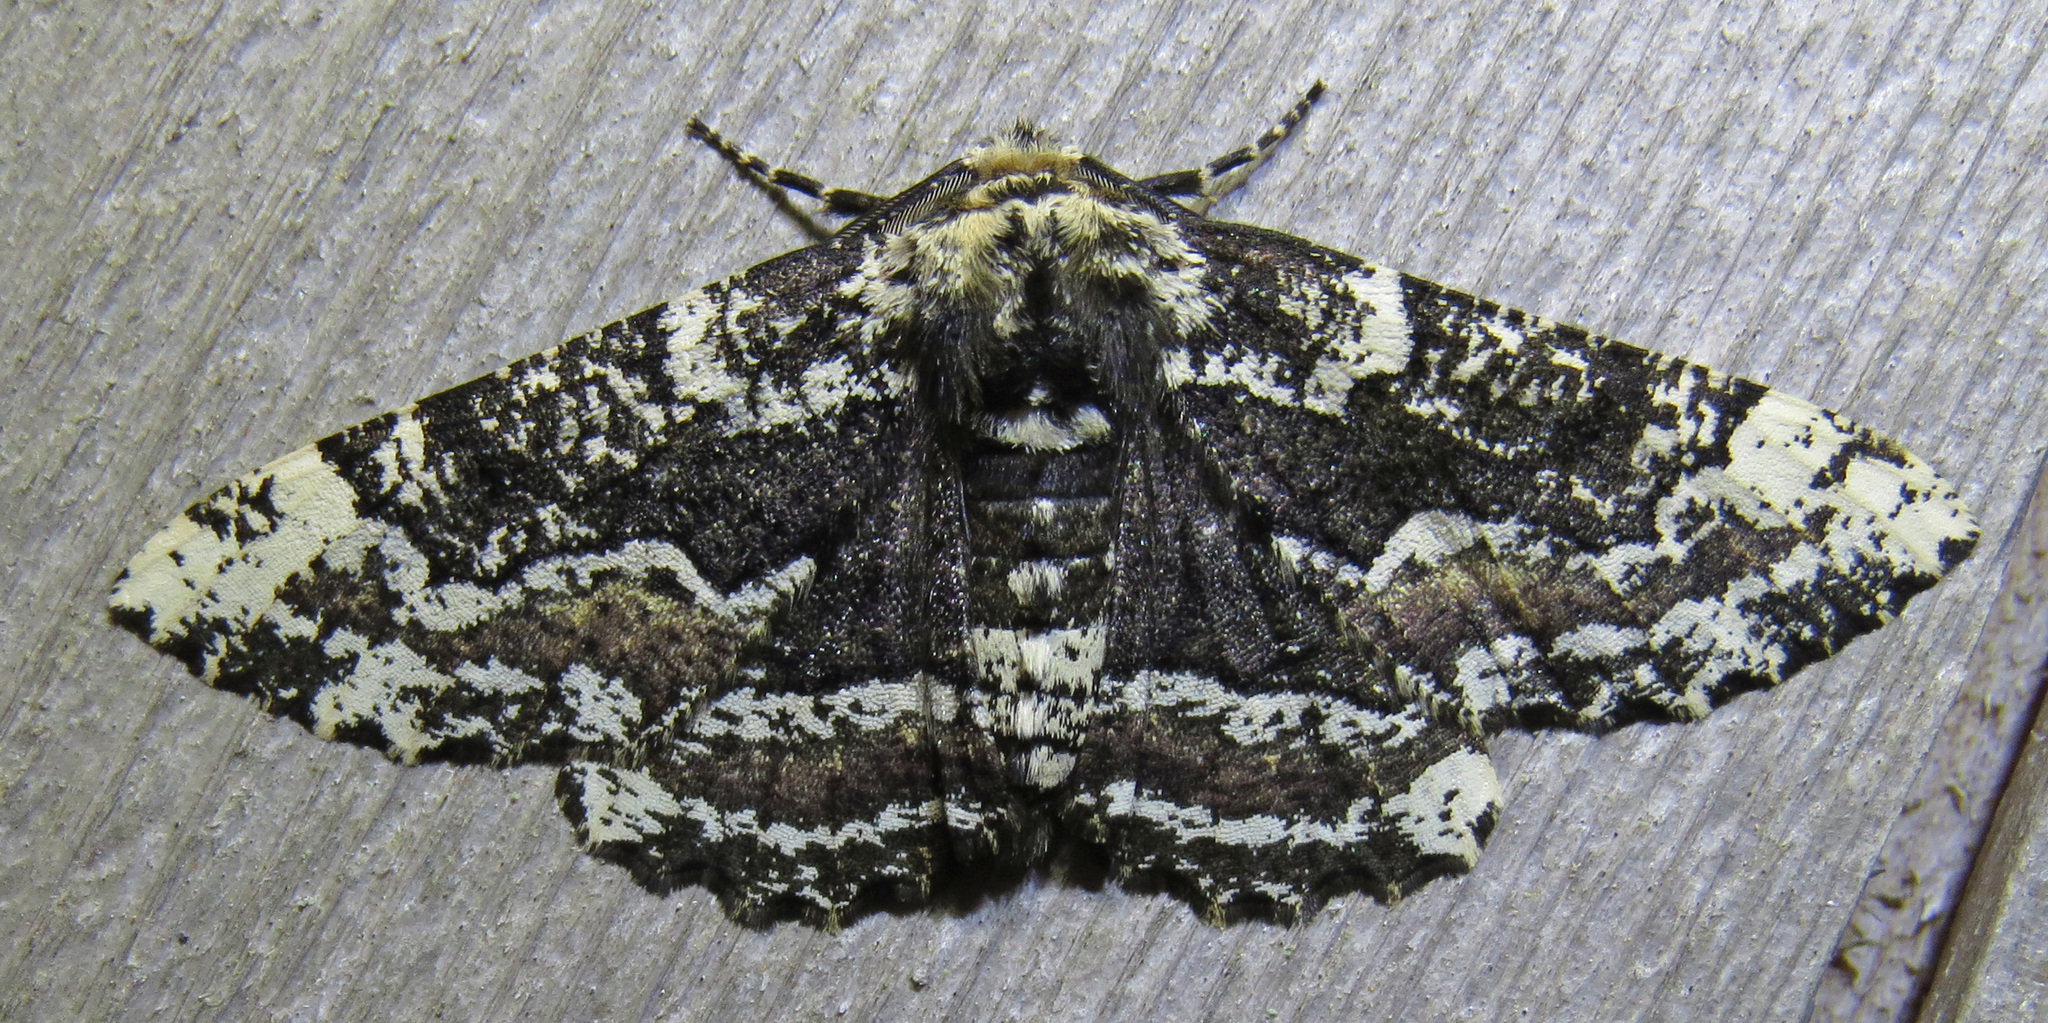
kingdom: Animalia
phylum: Arthropoda
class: Insecta
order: Lepidoptera
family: Geometridae
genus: Phaeoura
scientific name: Phaeoura quernaria
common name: Oak beauty
